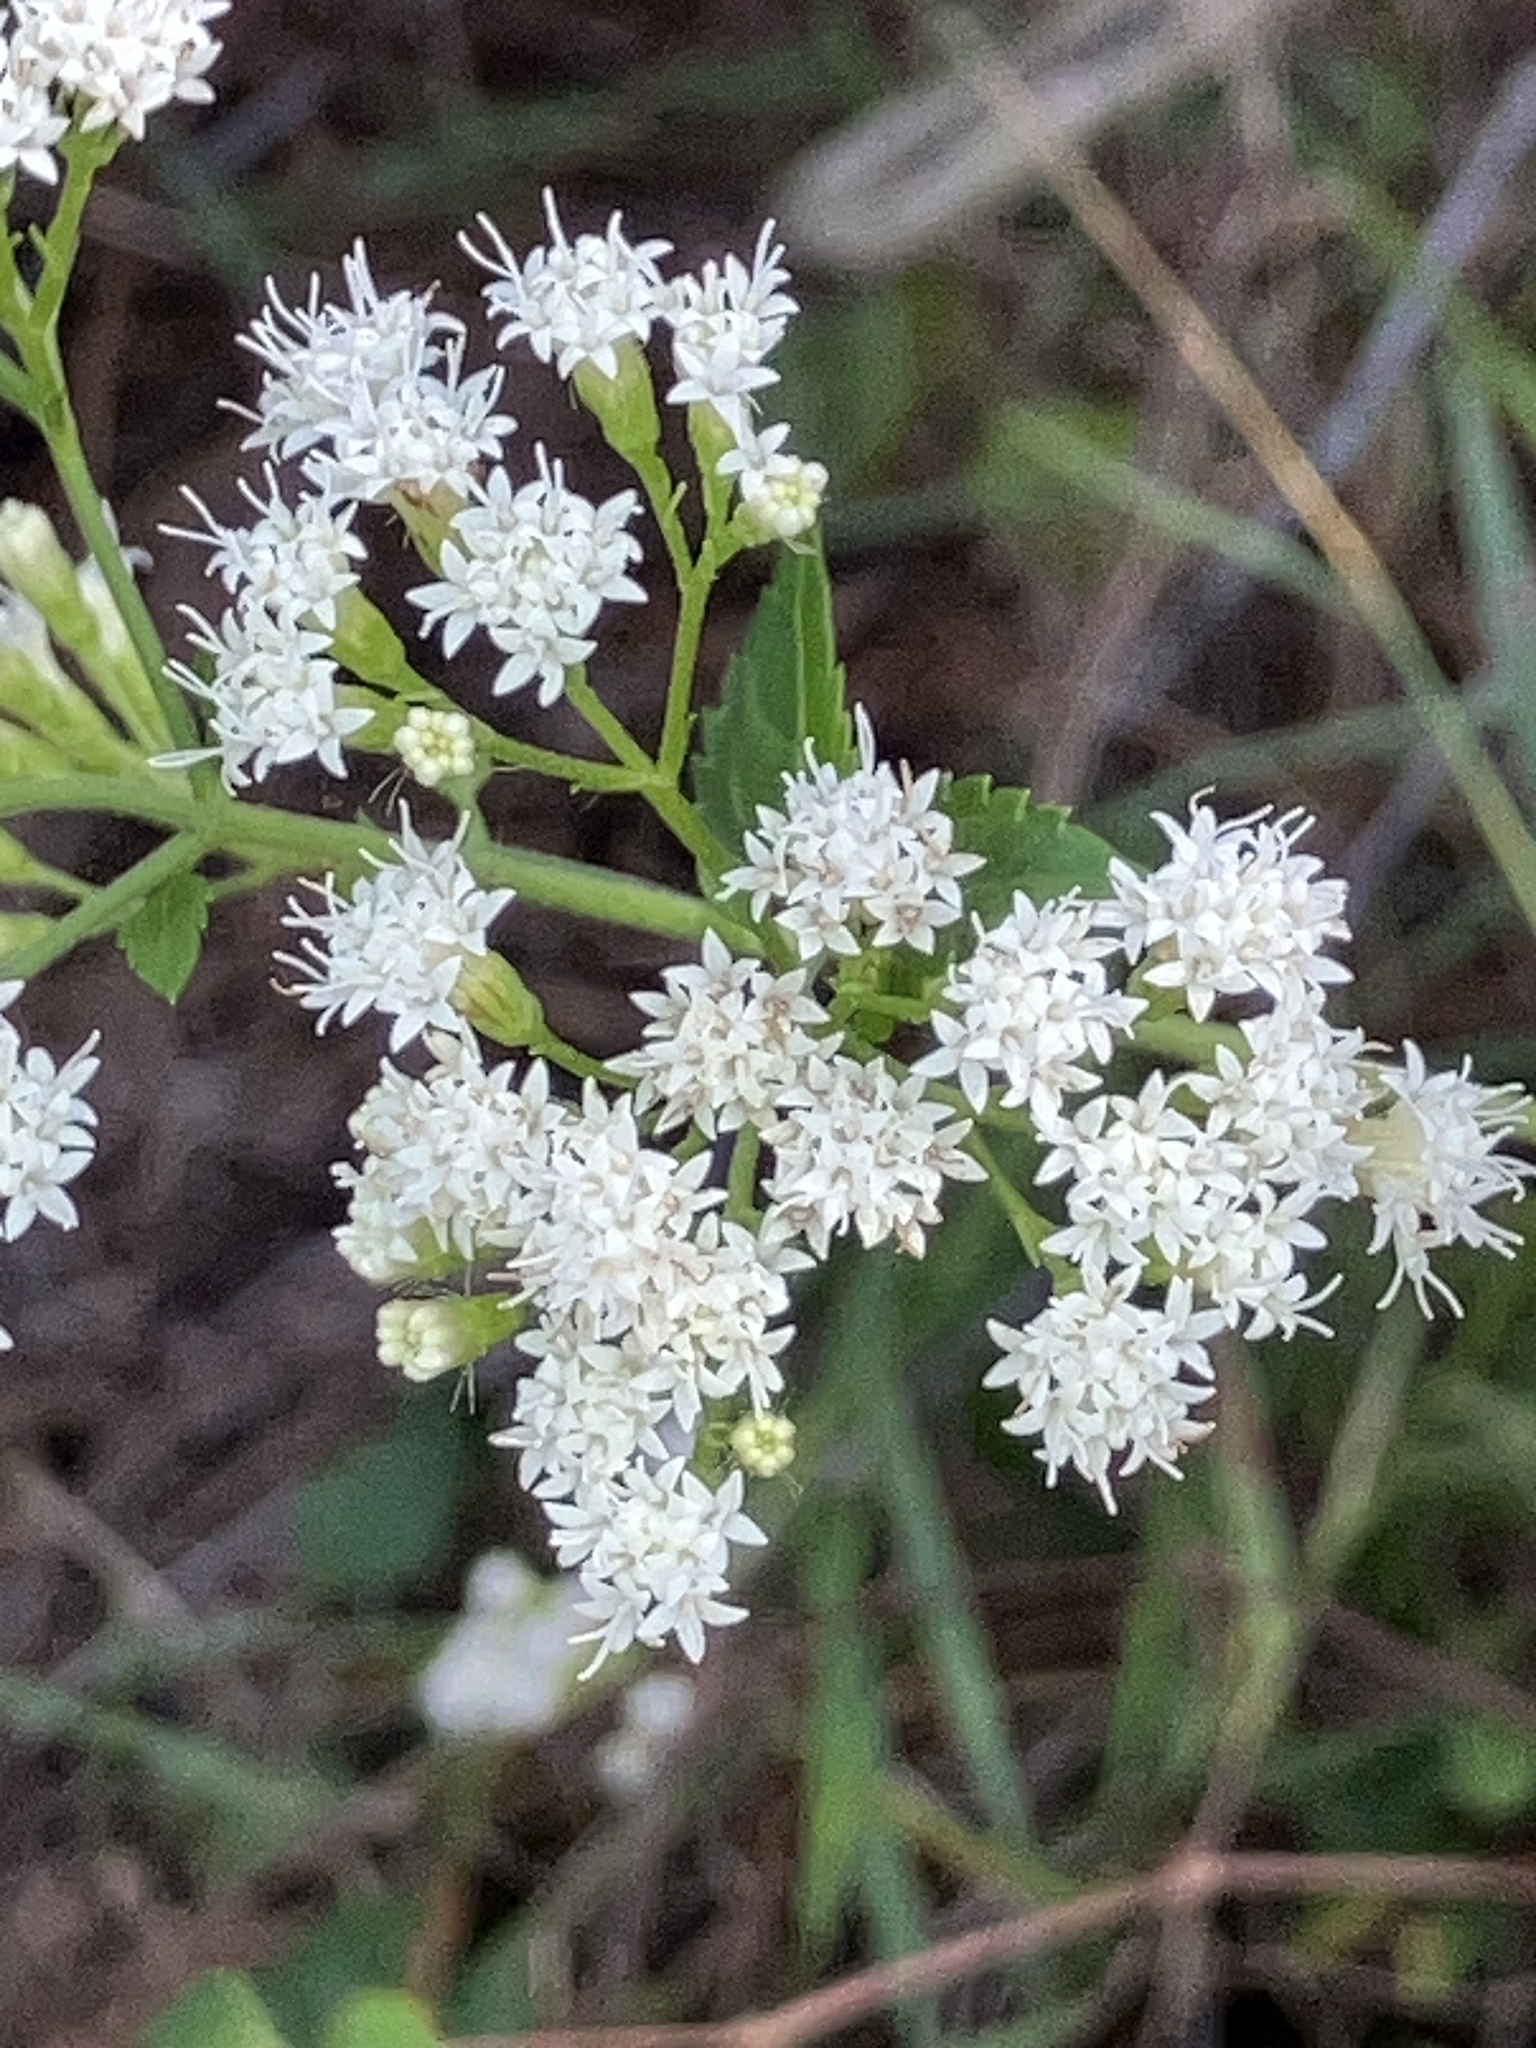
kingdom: Plantae
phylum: Tracheophyta
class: Magnoliopsida
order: Asterales
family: Asteraceae
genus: Ageratina
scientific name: Ageratina jucunda
